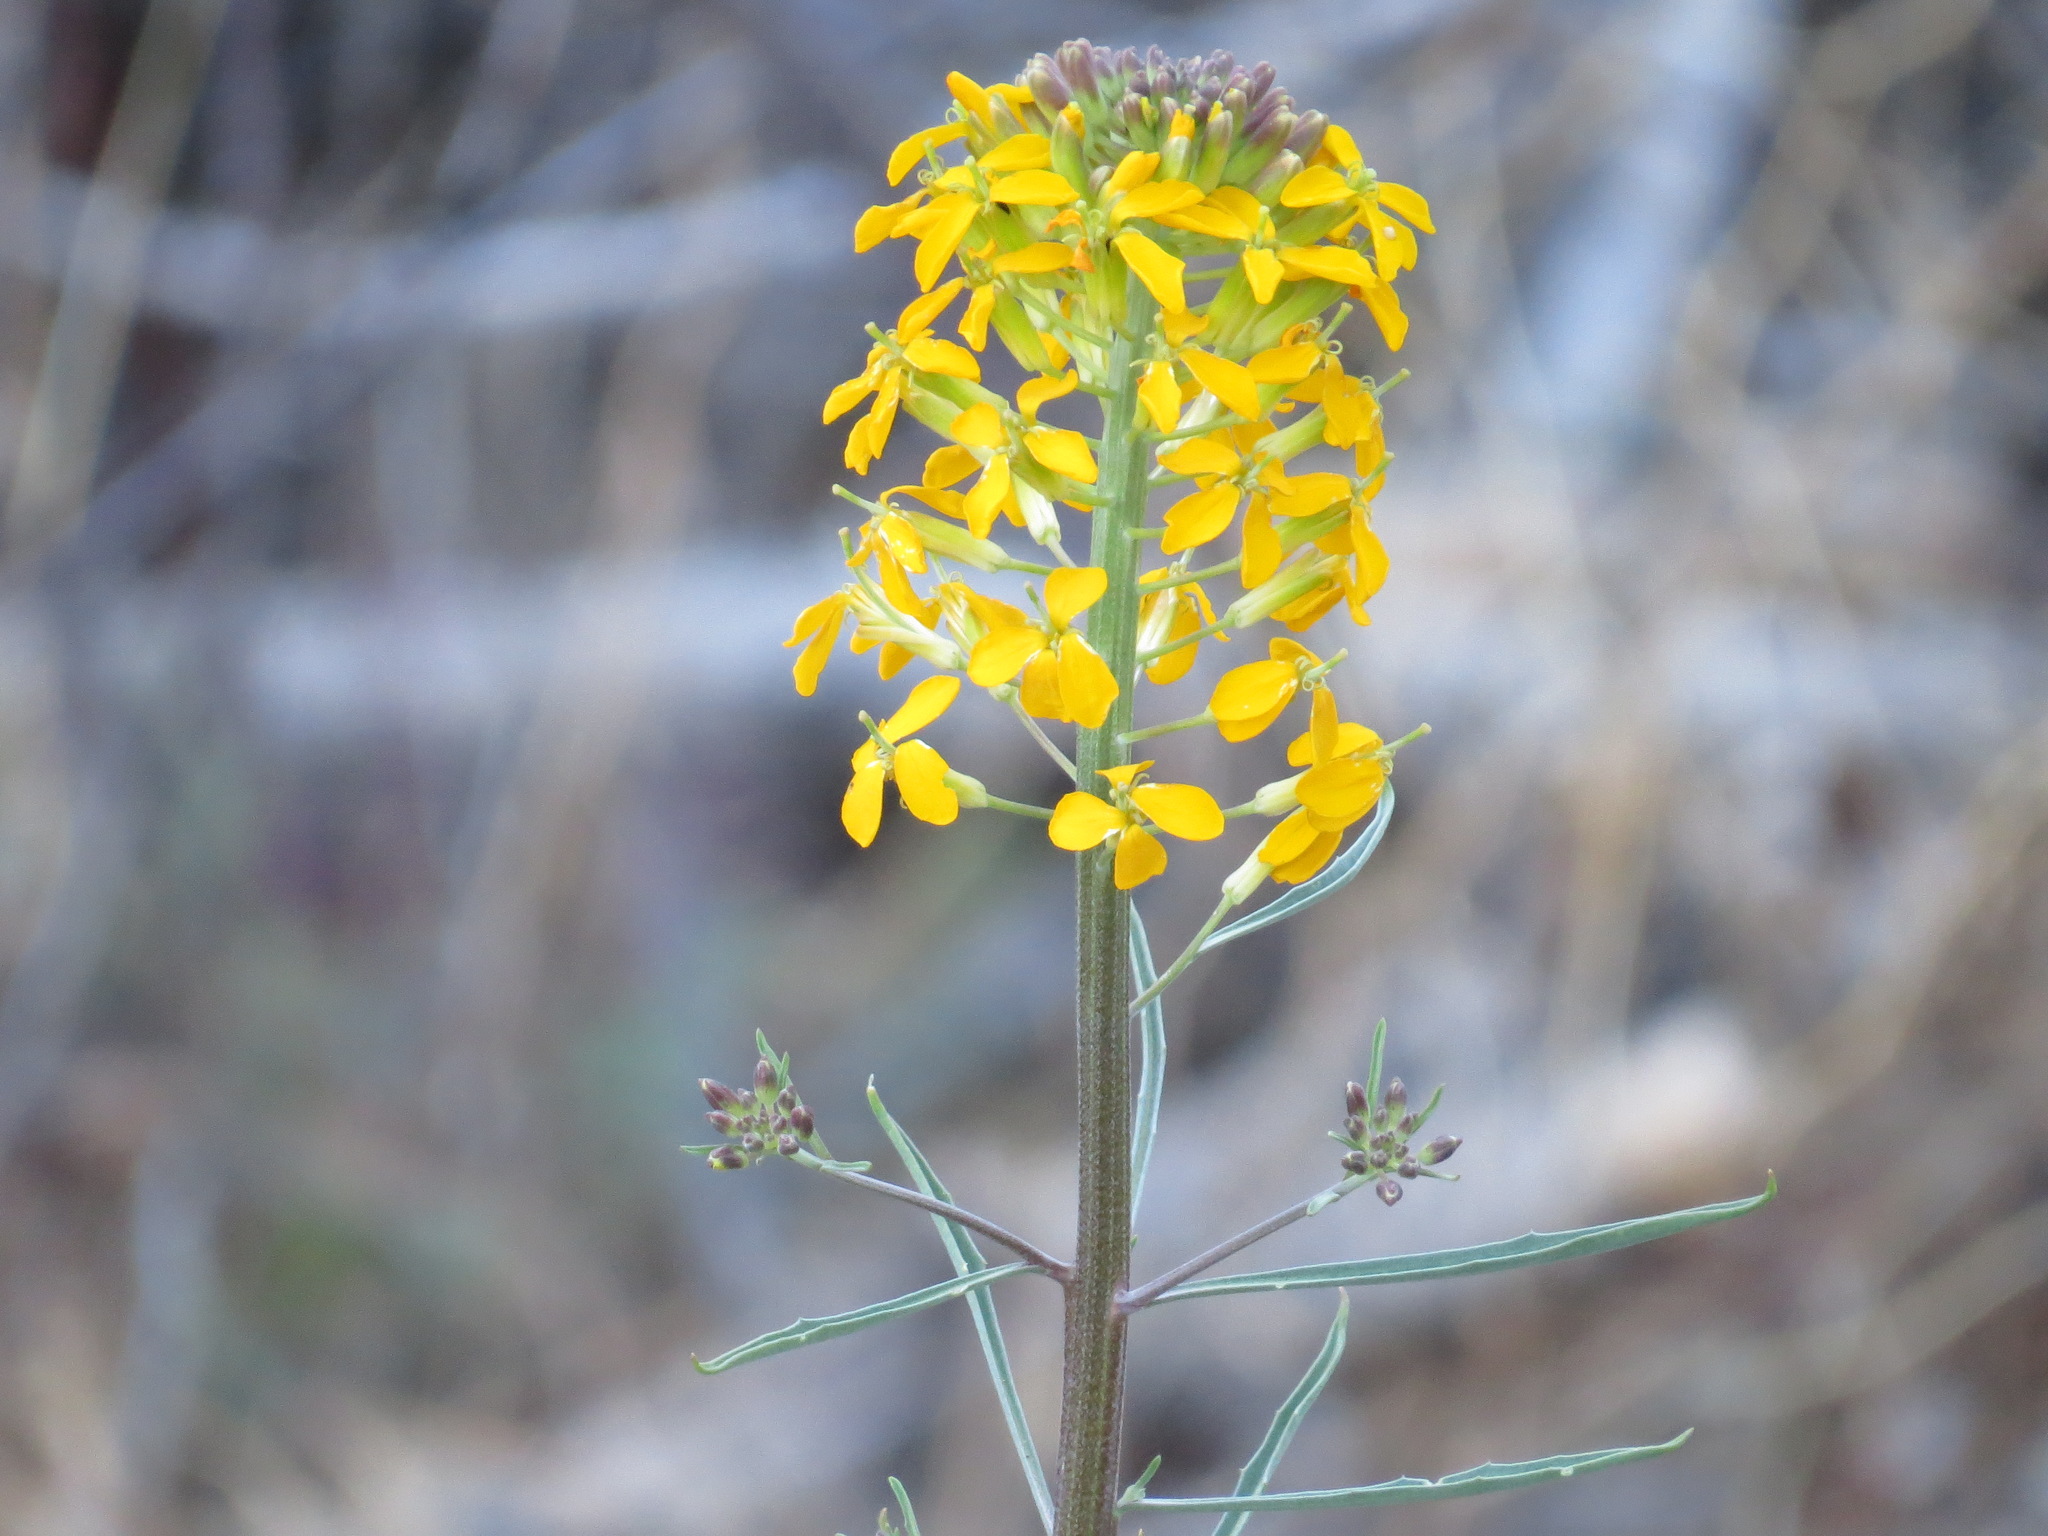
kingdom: Plantae
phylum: Tracheophyta
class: Magnoliopsida
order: Brassicales
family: Brassicaceae
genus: Erysimum
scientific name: Erysimum capitatum
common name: Western wallflower
